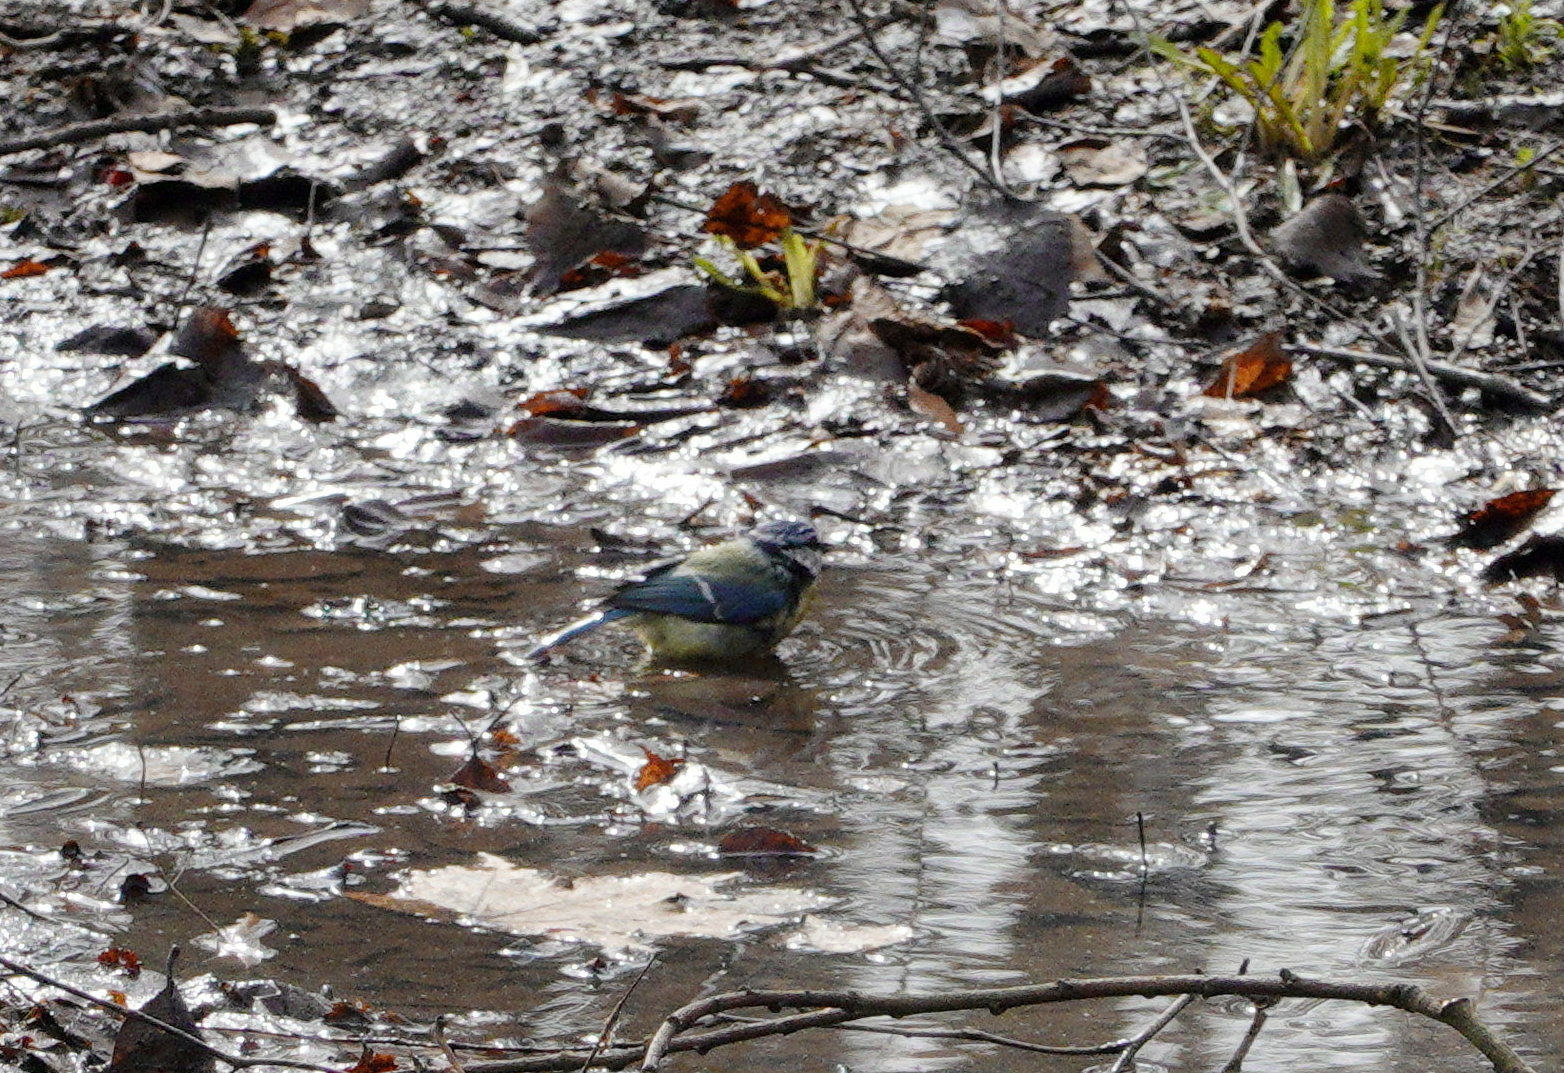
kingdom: Animalia
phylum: Chordata
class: Aves
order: Passeriformes
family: Paridae
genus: Cyanistes
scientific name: Cyanistes caeruleus
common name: Eurasian blue tit
